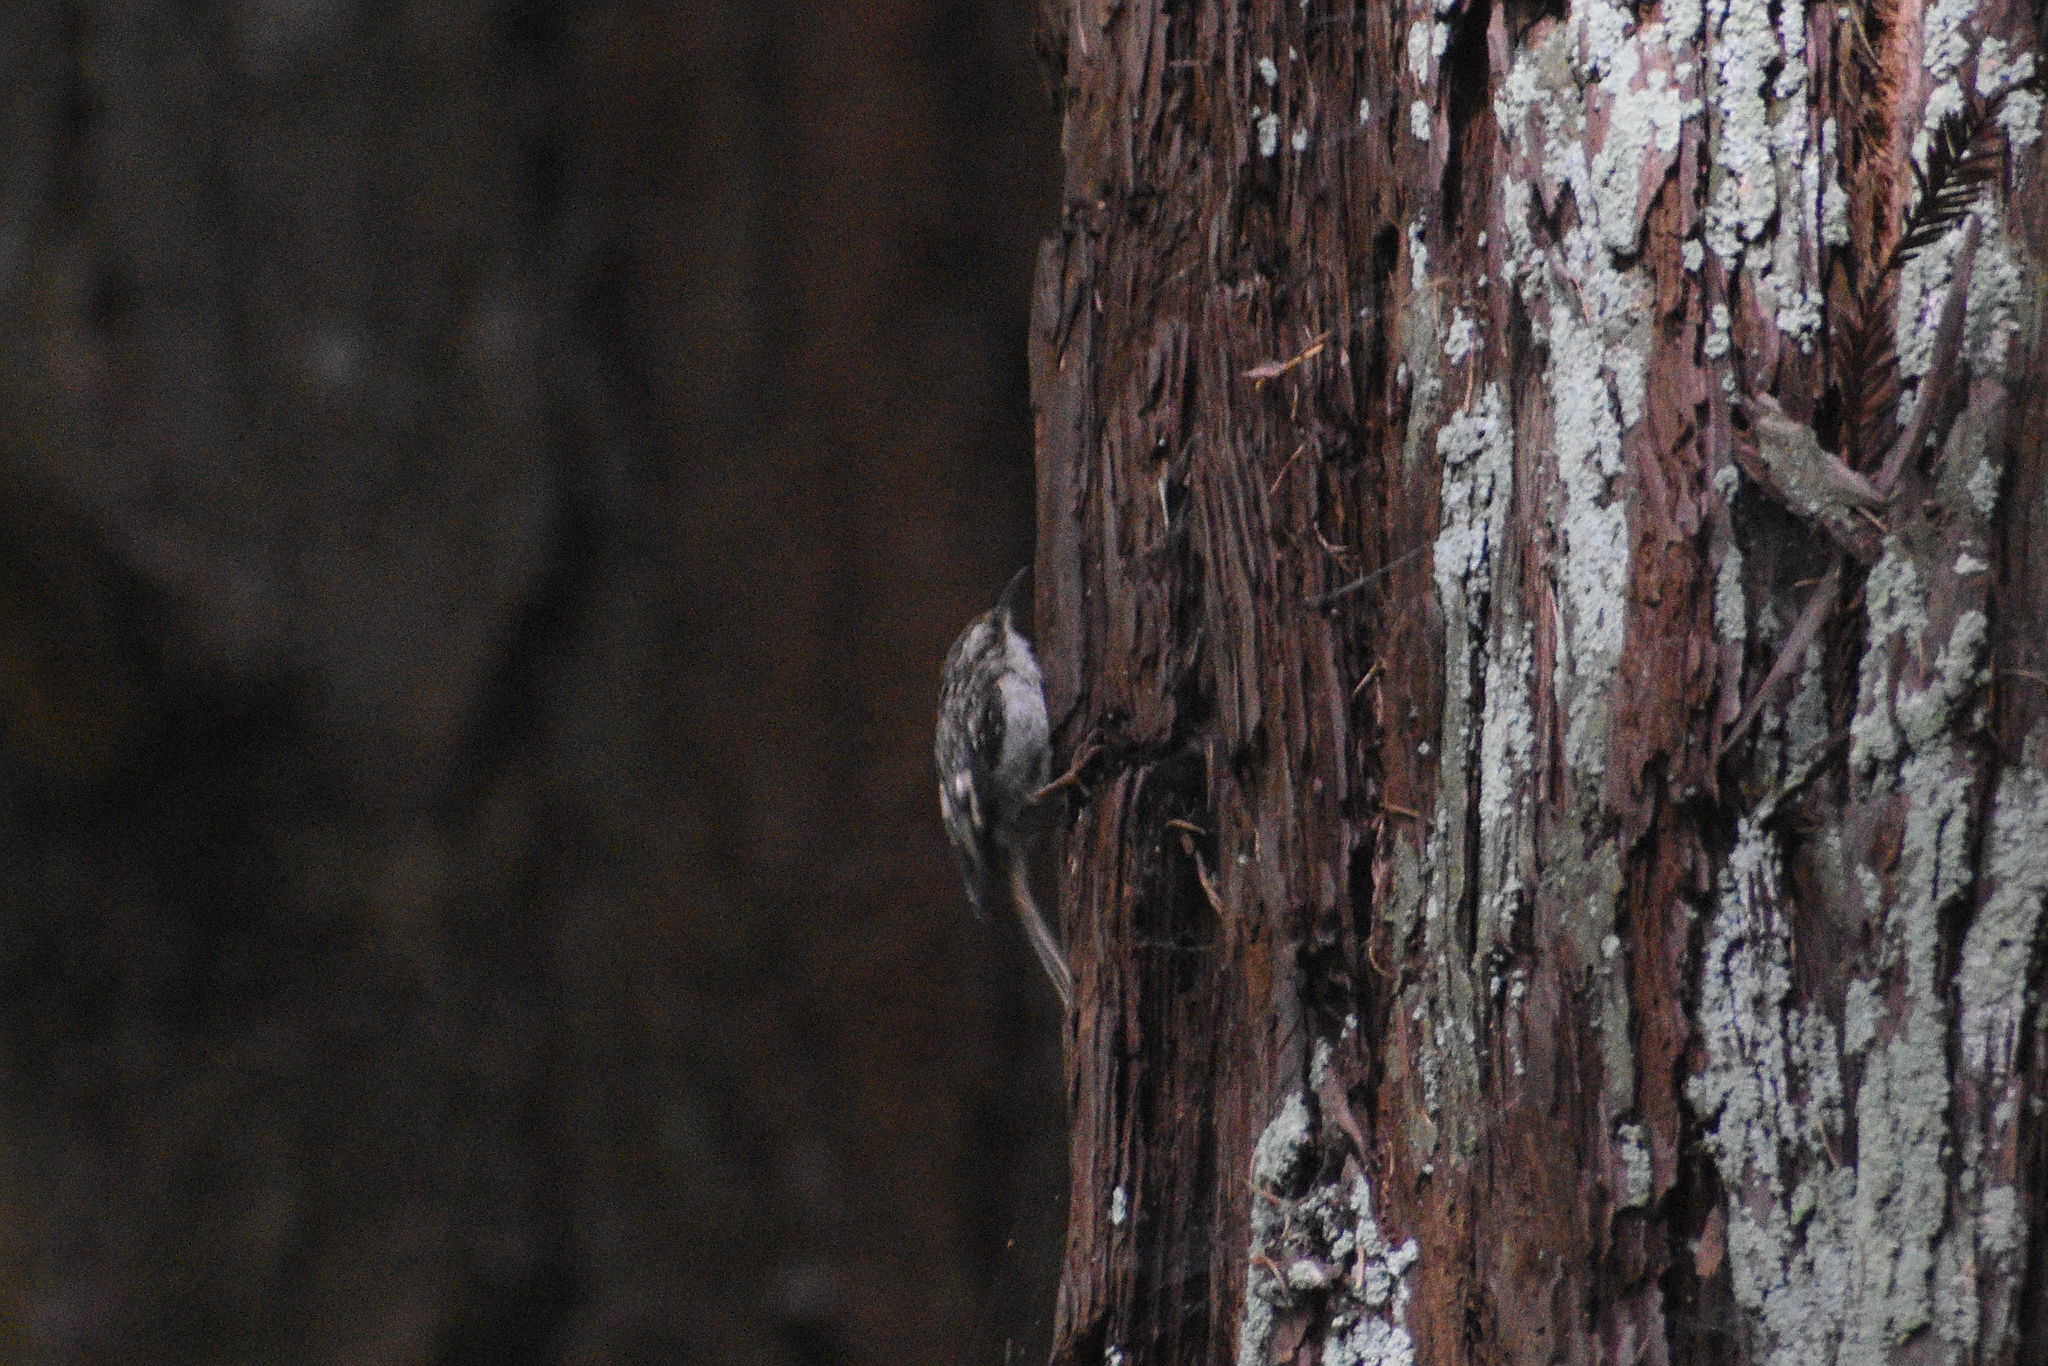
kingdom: Animalia
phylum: Chordata
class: Aves
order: Passeriformes
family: Certhiidae
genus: Certhia
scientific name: Certhia americana
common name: Brown creeper
